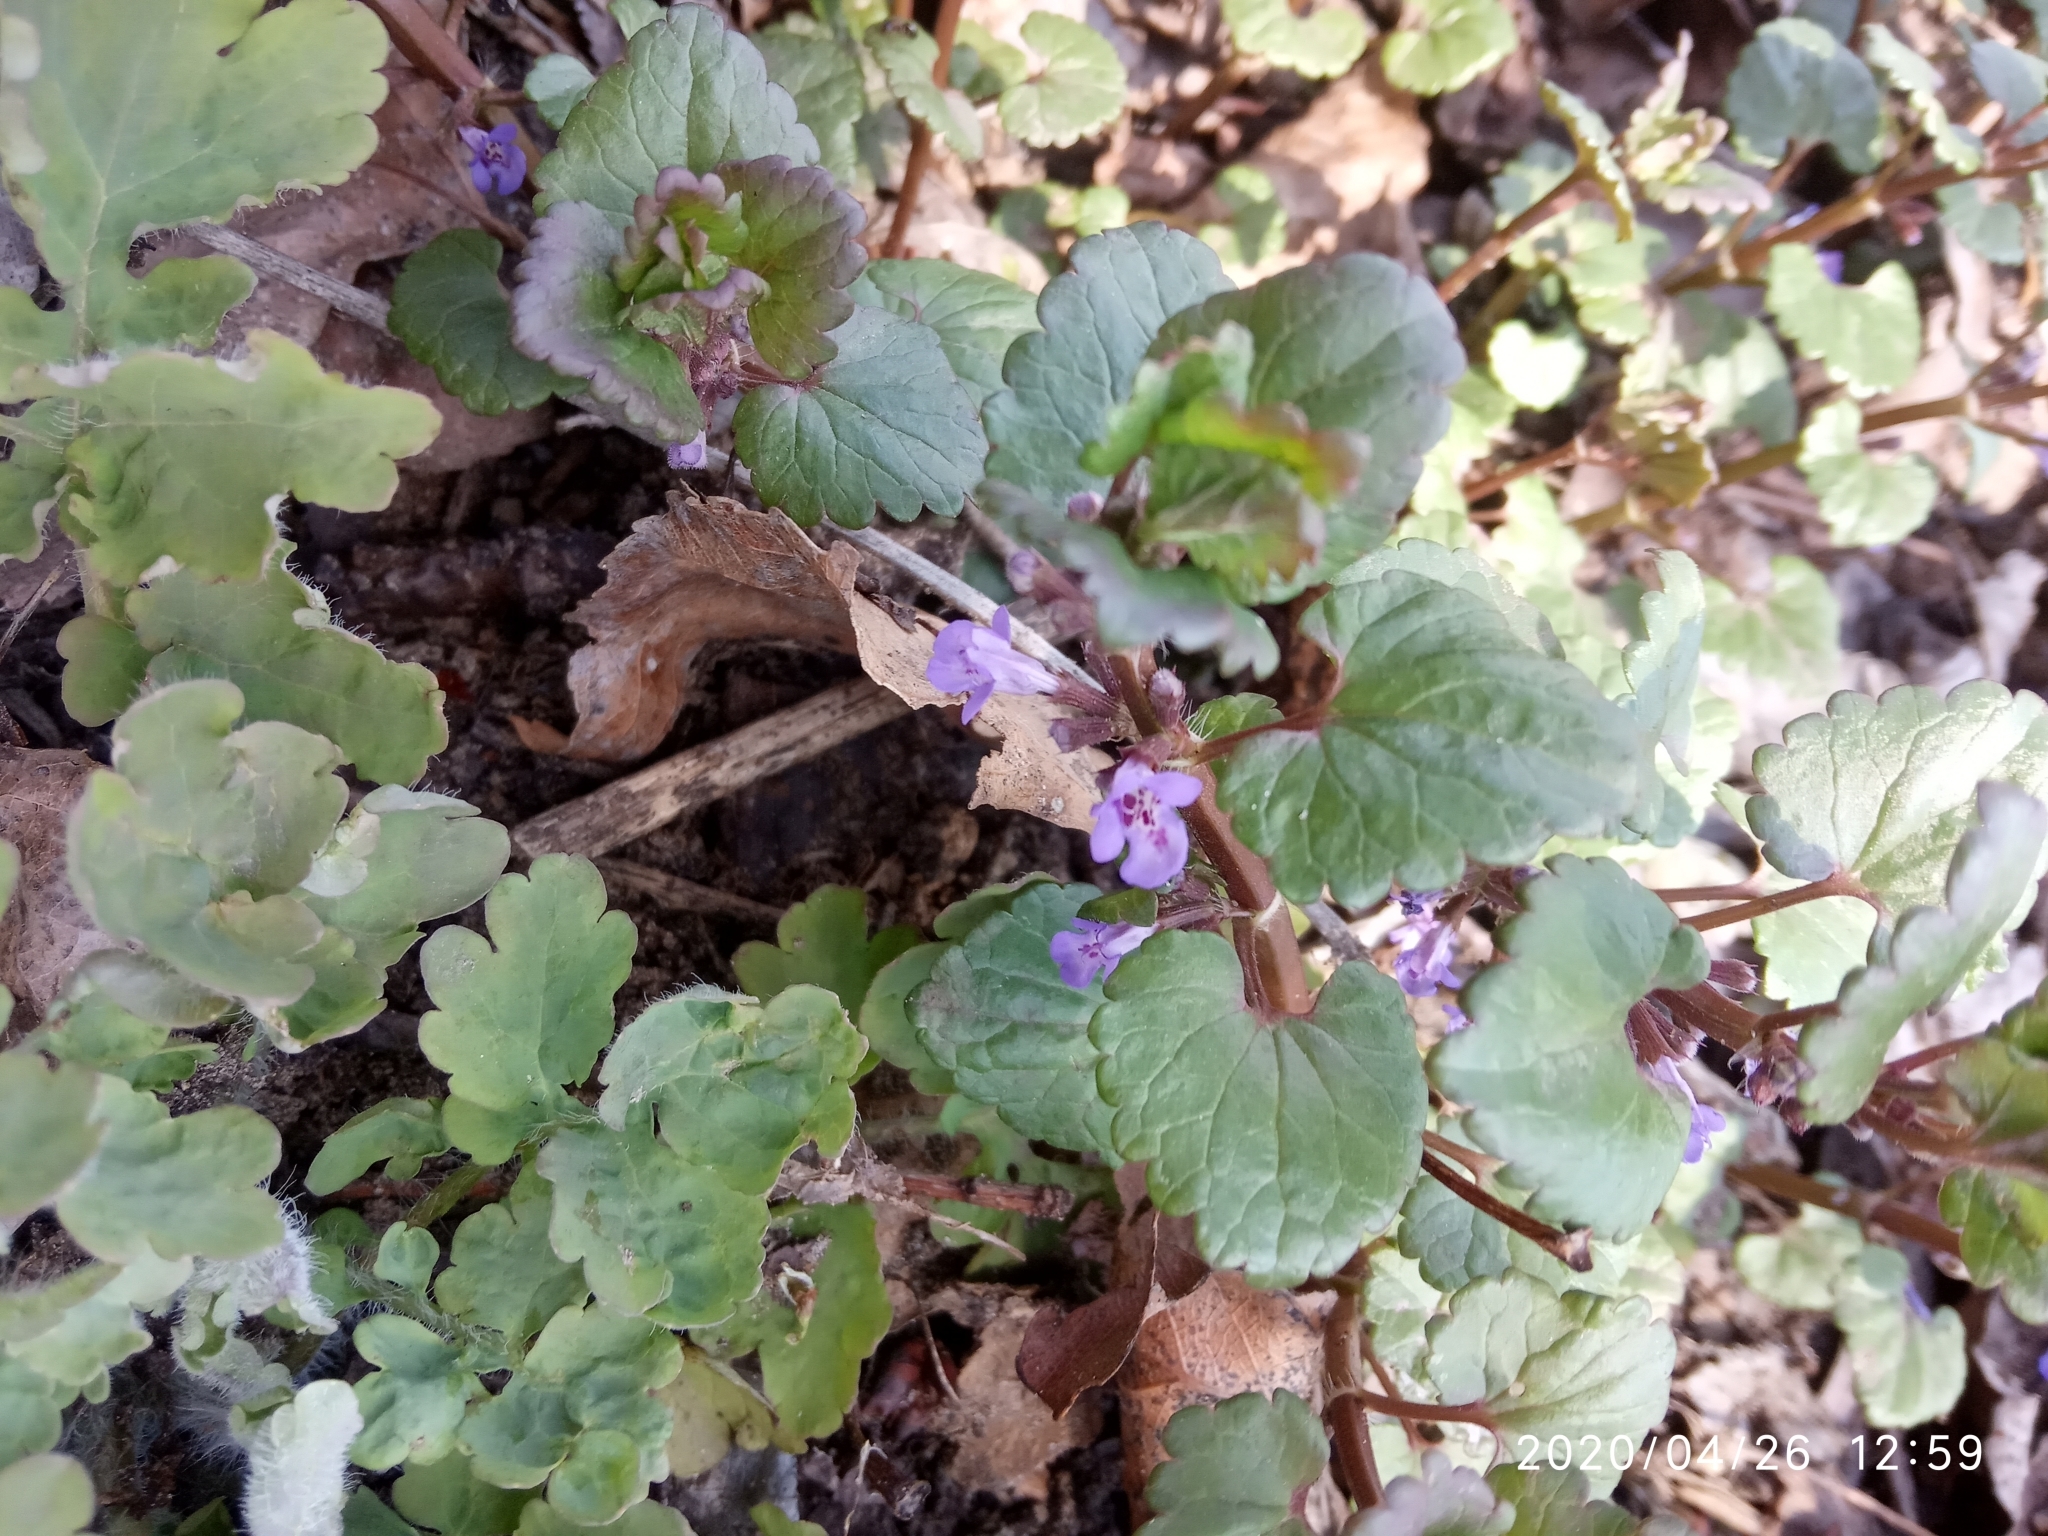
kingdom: Plantae
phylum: Tracheophyta
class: Magnoliopsida
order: Lamiales
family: Lamiaceae
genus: Glechoma
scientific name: Glechoma hederacea
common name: Ground ivy
